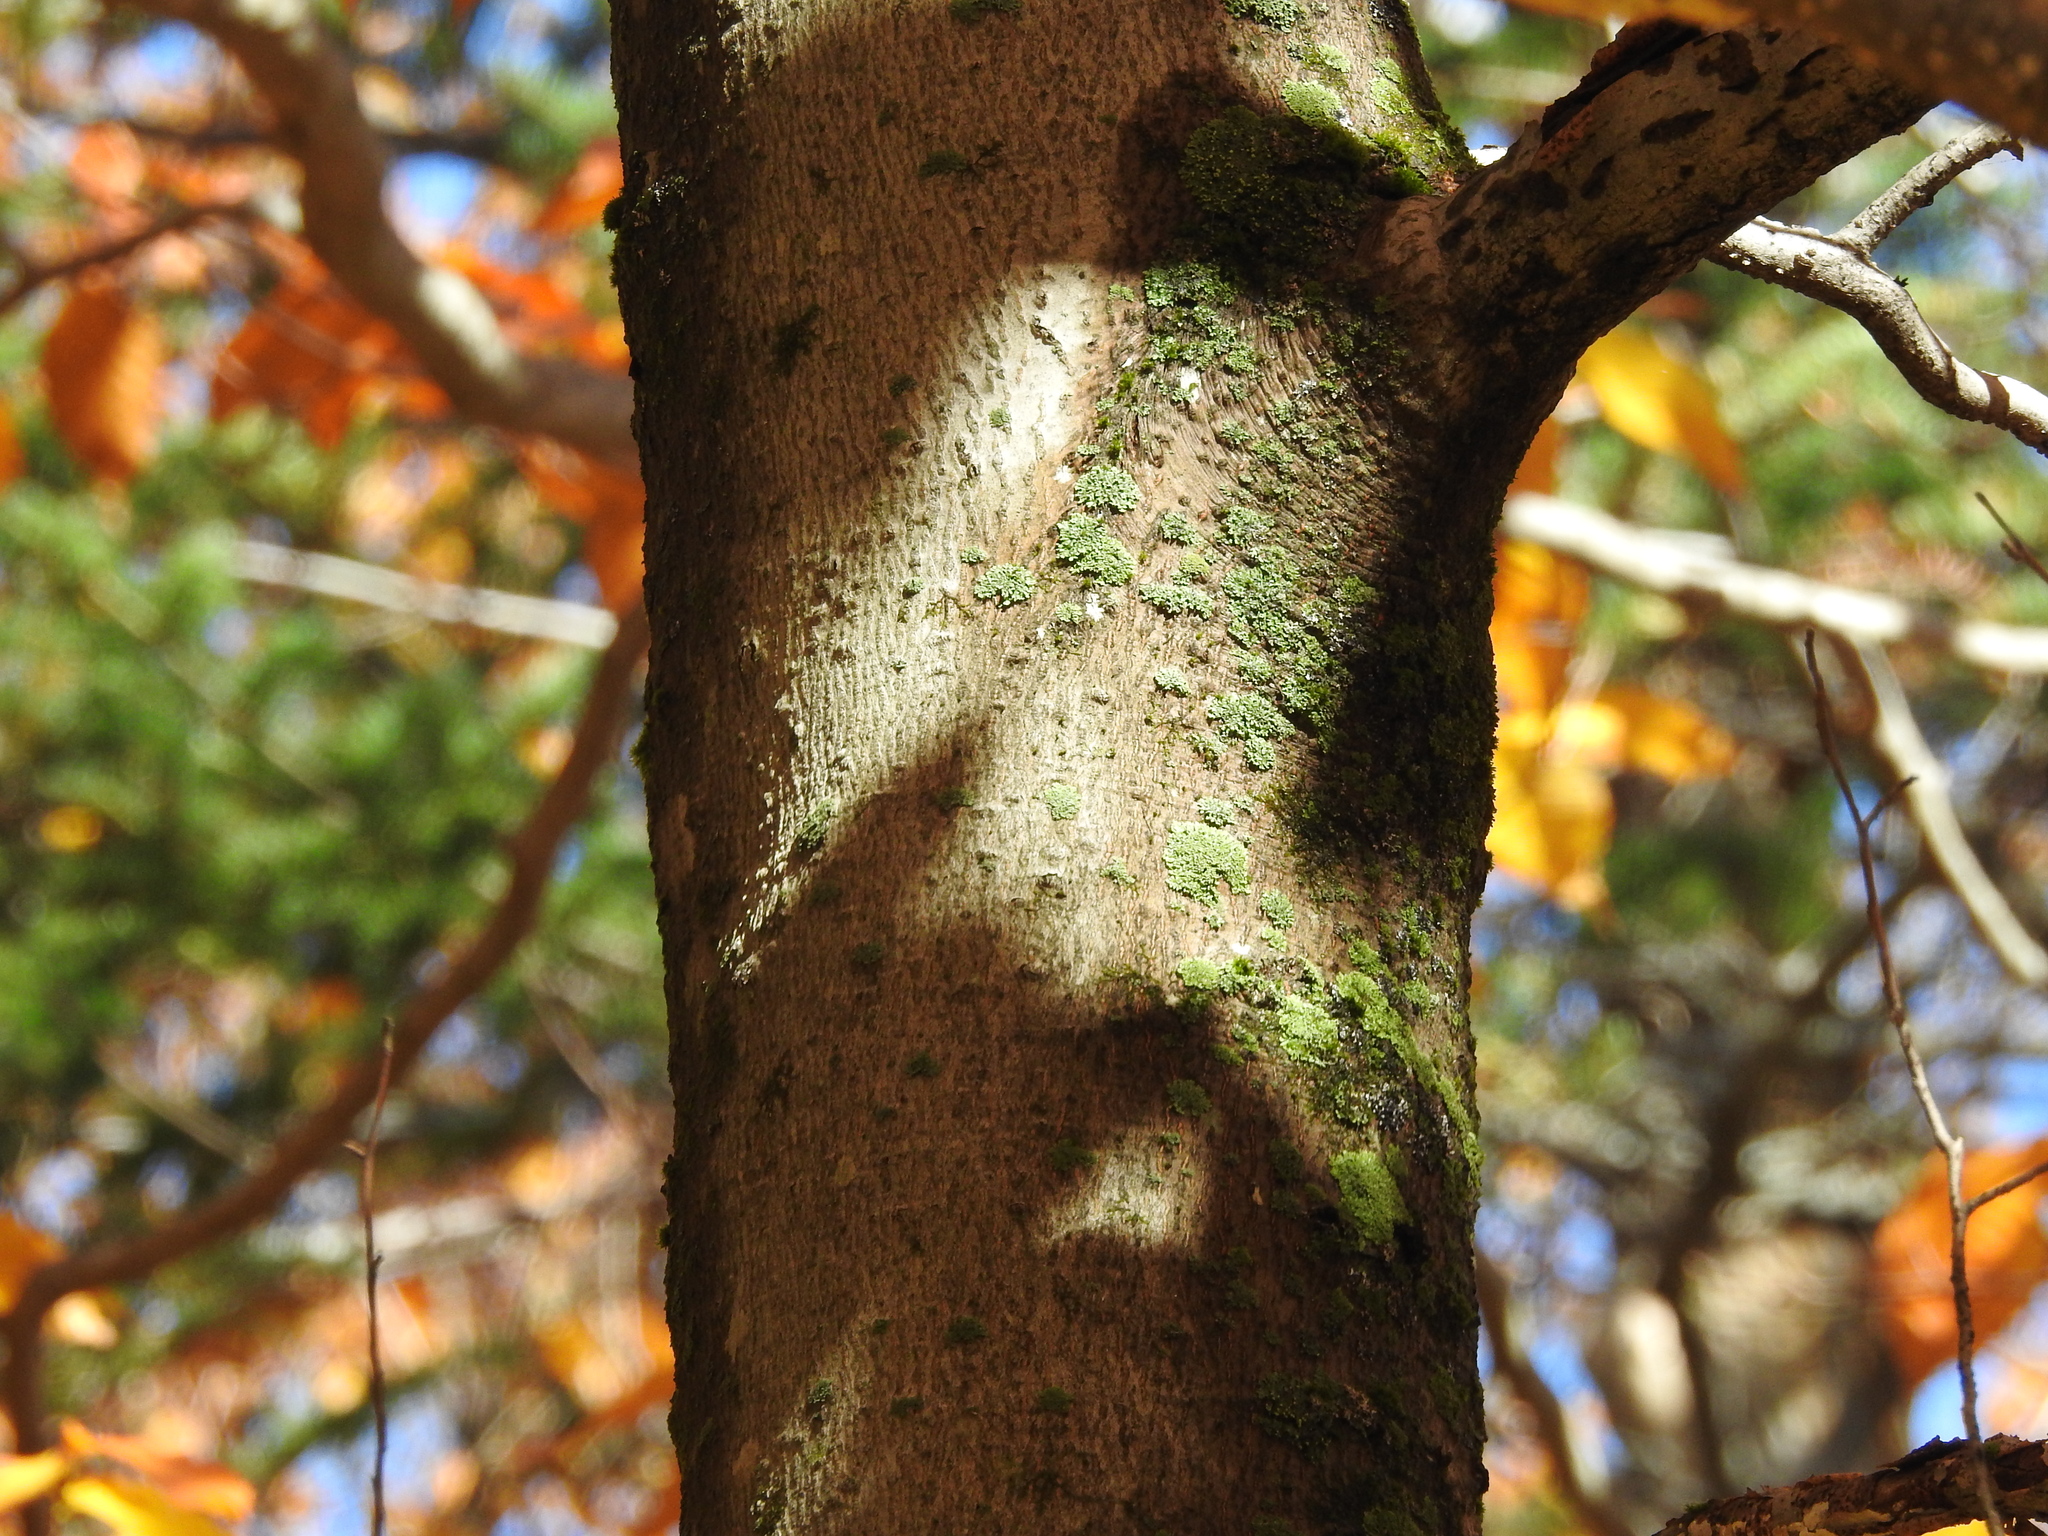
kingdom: Plantae
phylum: Tracheophyta
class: Magnoliopsida
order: Fagales
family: Fagaceae
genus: Fagus
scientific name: Fagus grandifolia
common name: American beech
